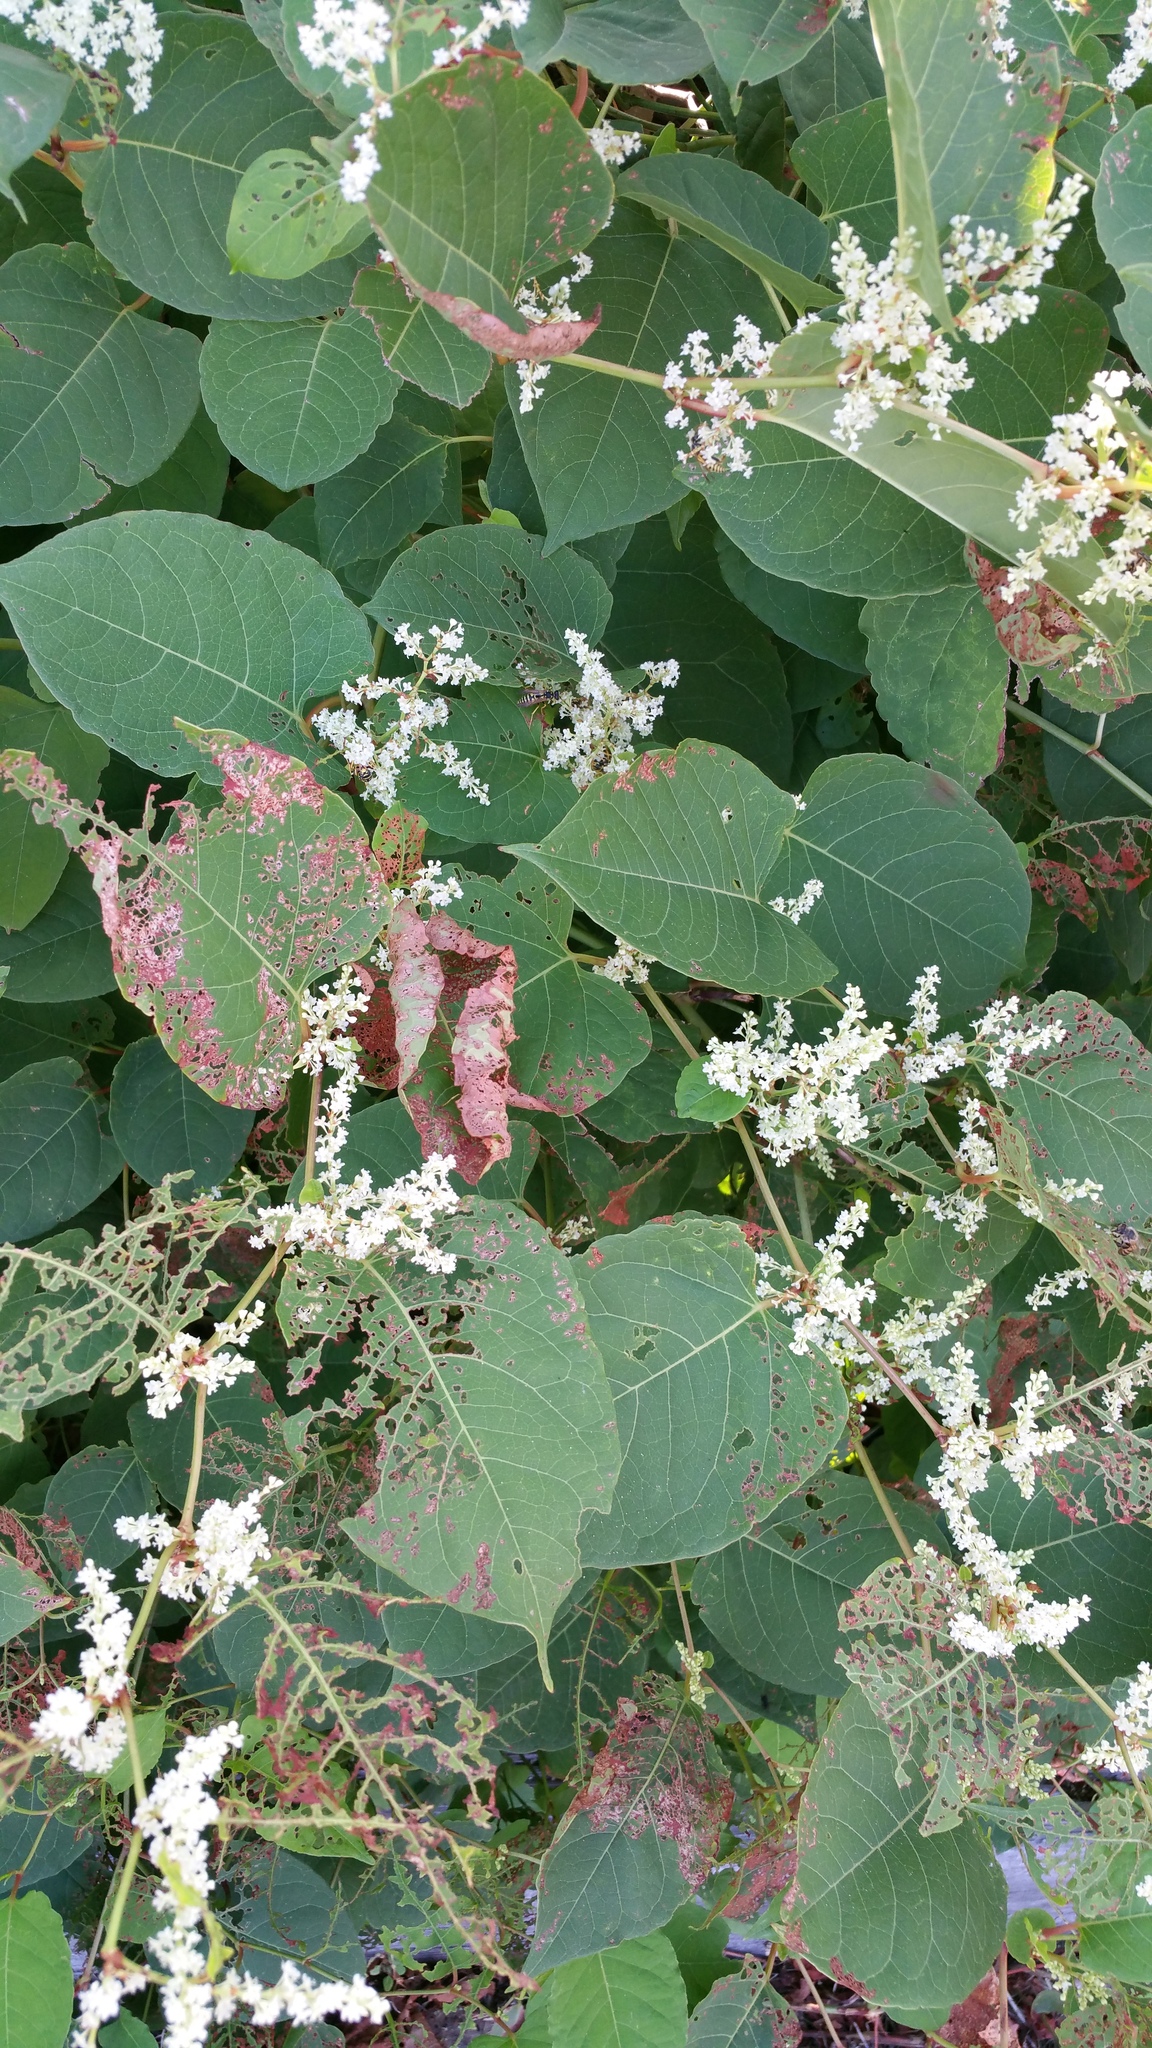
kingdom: Plantae
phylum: Tracheophyta
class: Magnoliopsida
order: Caryophyllales
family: Polygonaceae
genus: Reynoutria
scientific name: Reynoutria japonica
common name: Japanese knotweed
